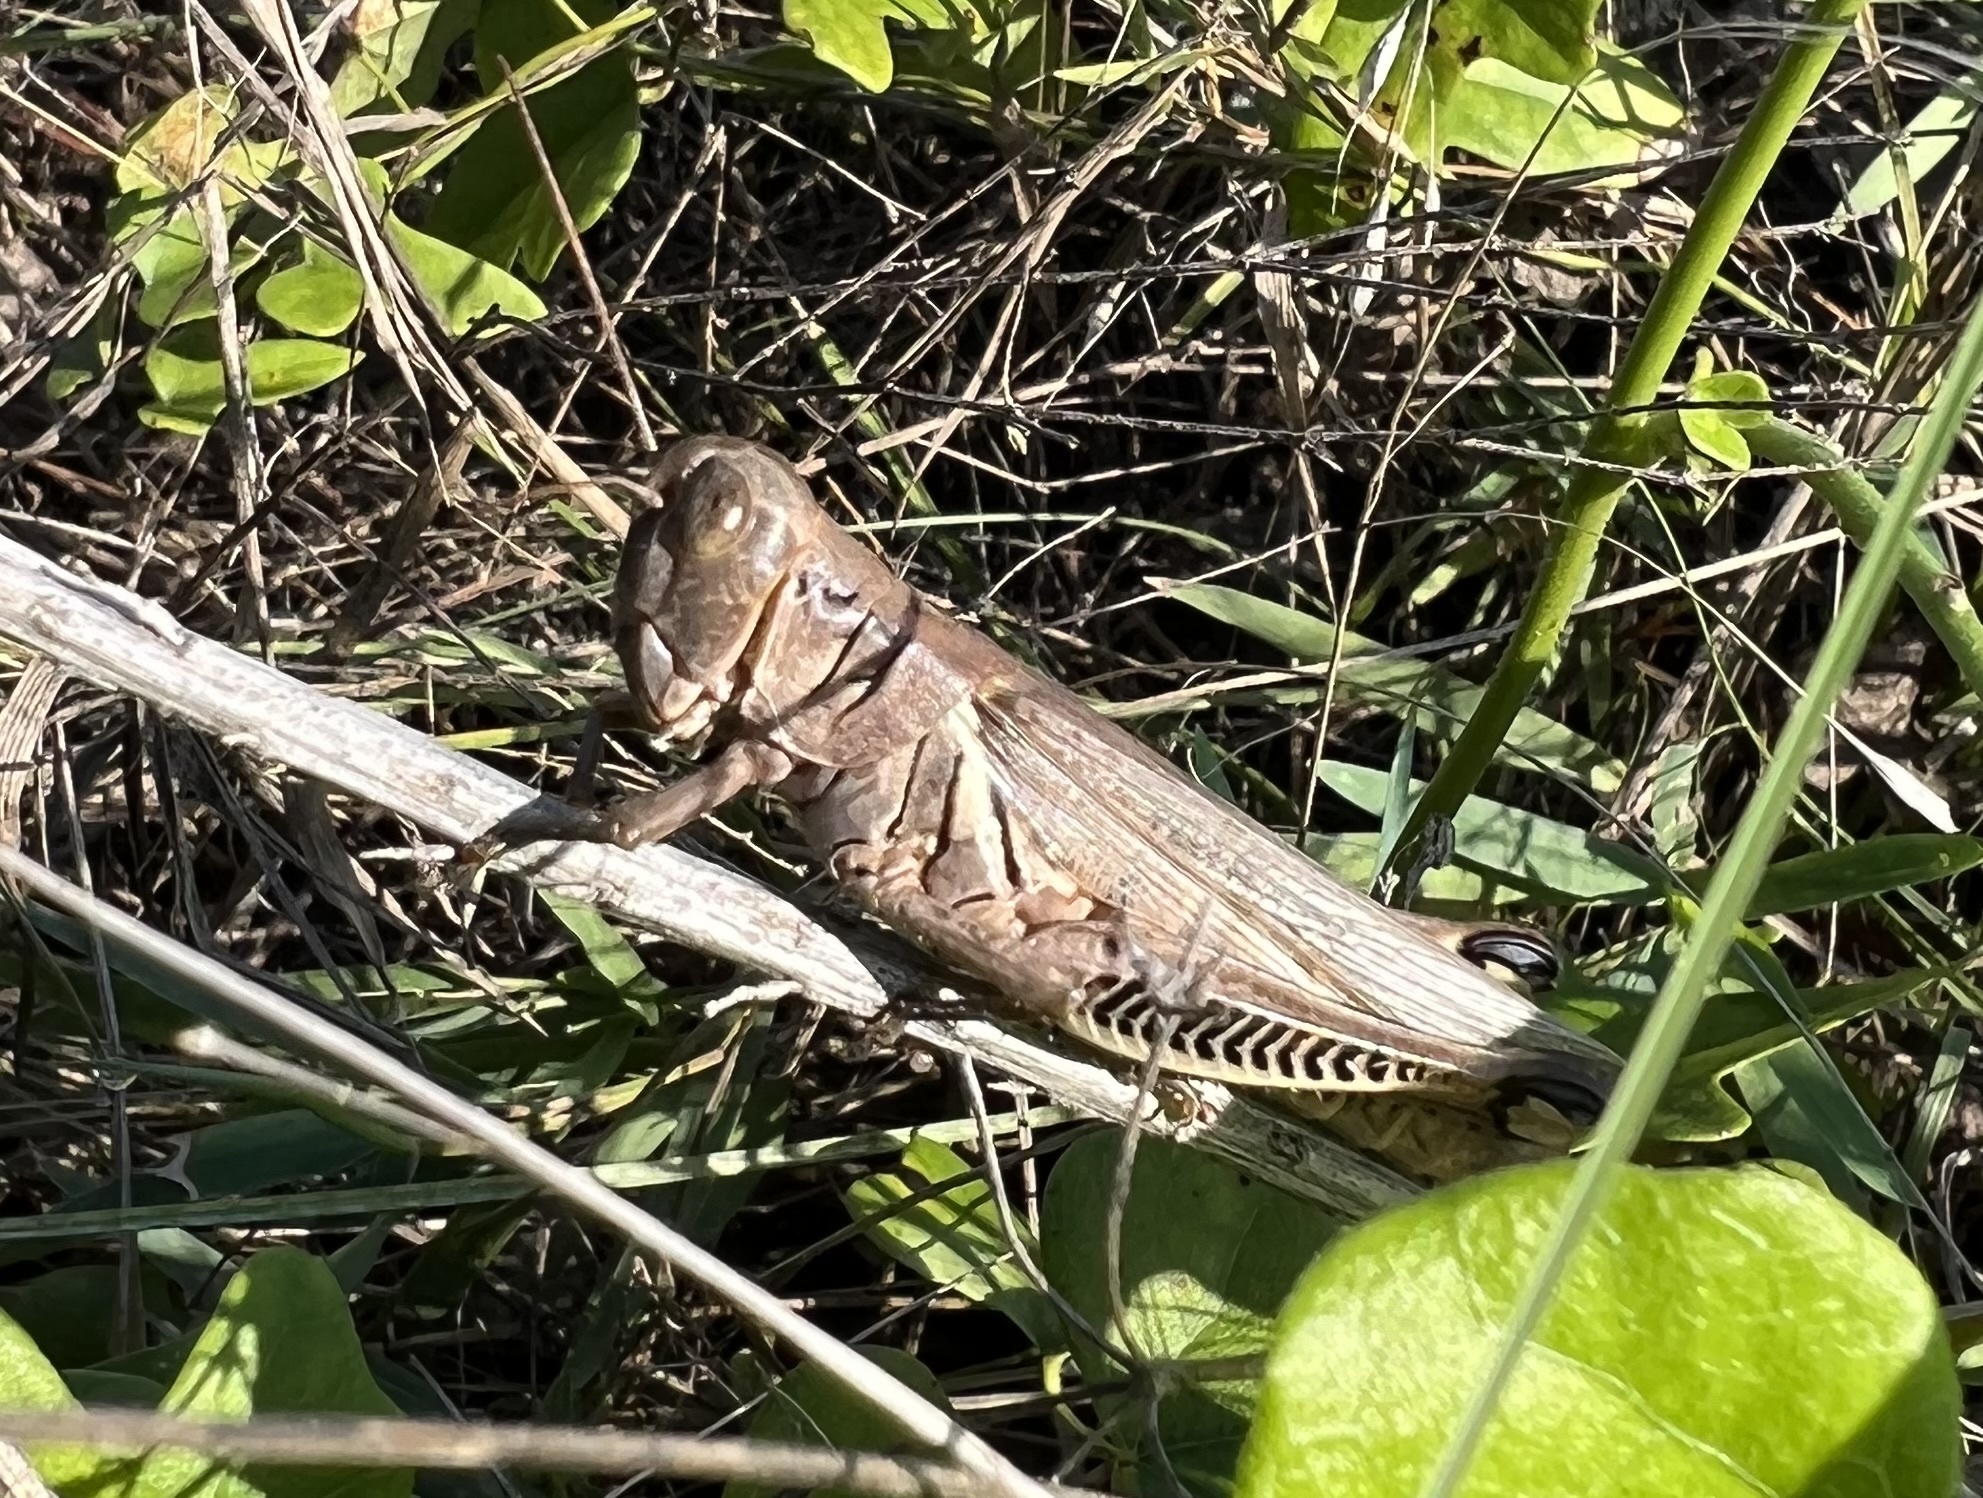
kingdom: Animalia
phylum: Arthropoda
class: Insecta
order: Orthoptera
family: Acrididae
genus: Melanoplus
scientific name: Melanoplus differentialis
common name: Differential grasshopper
